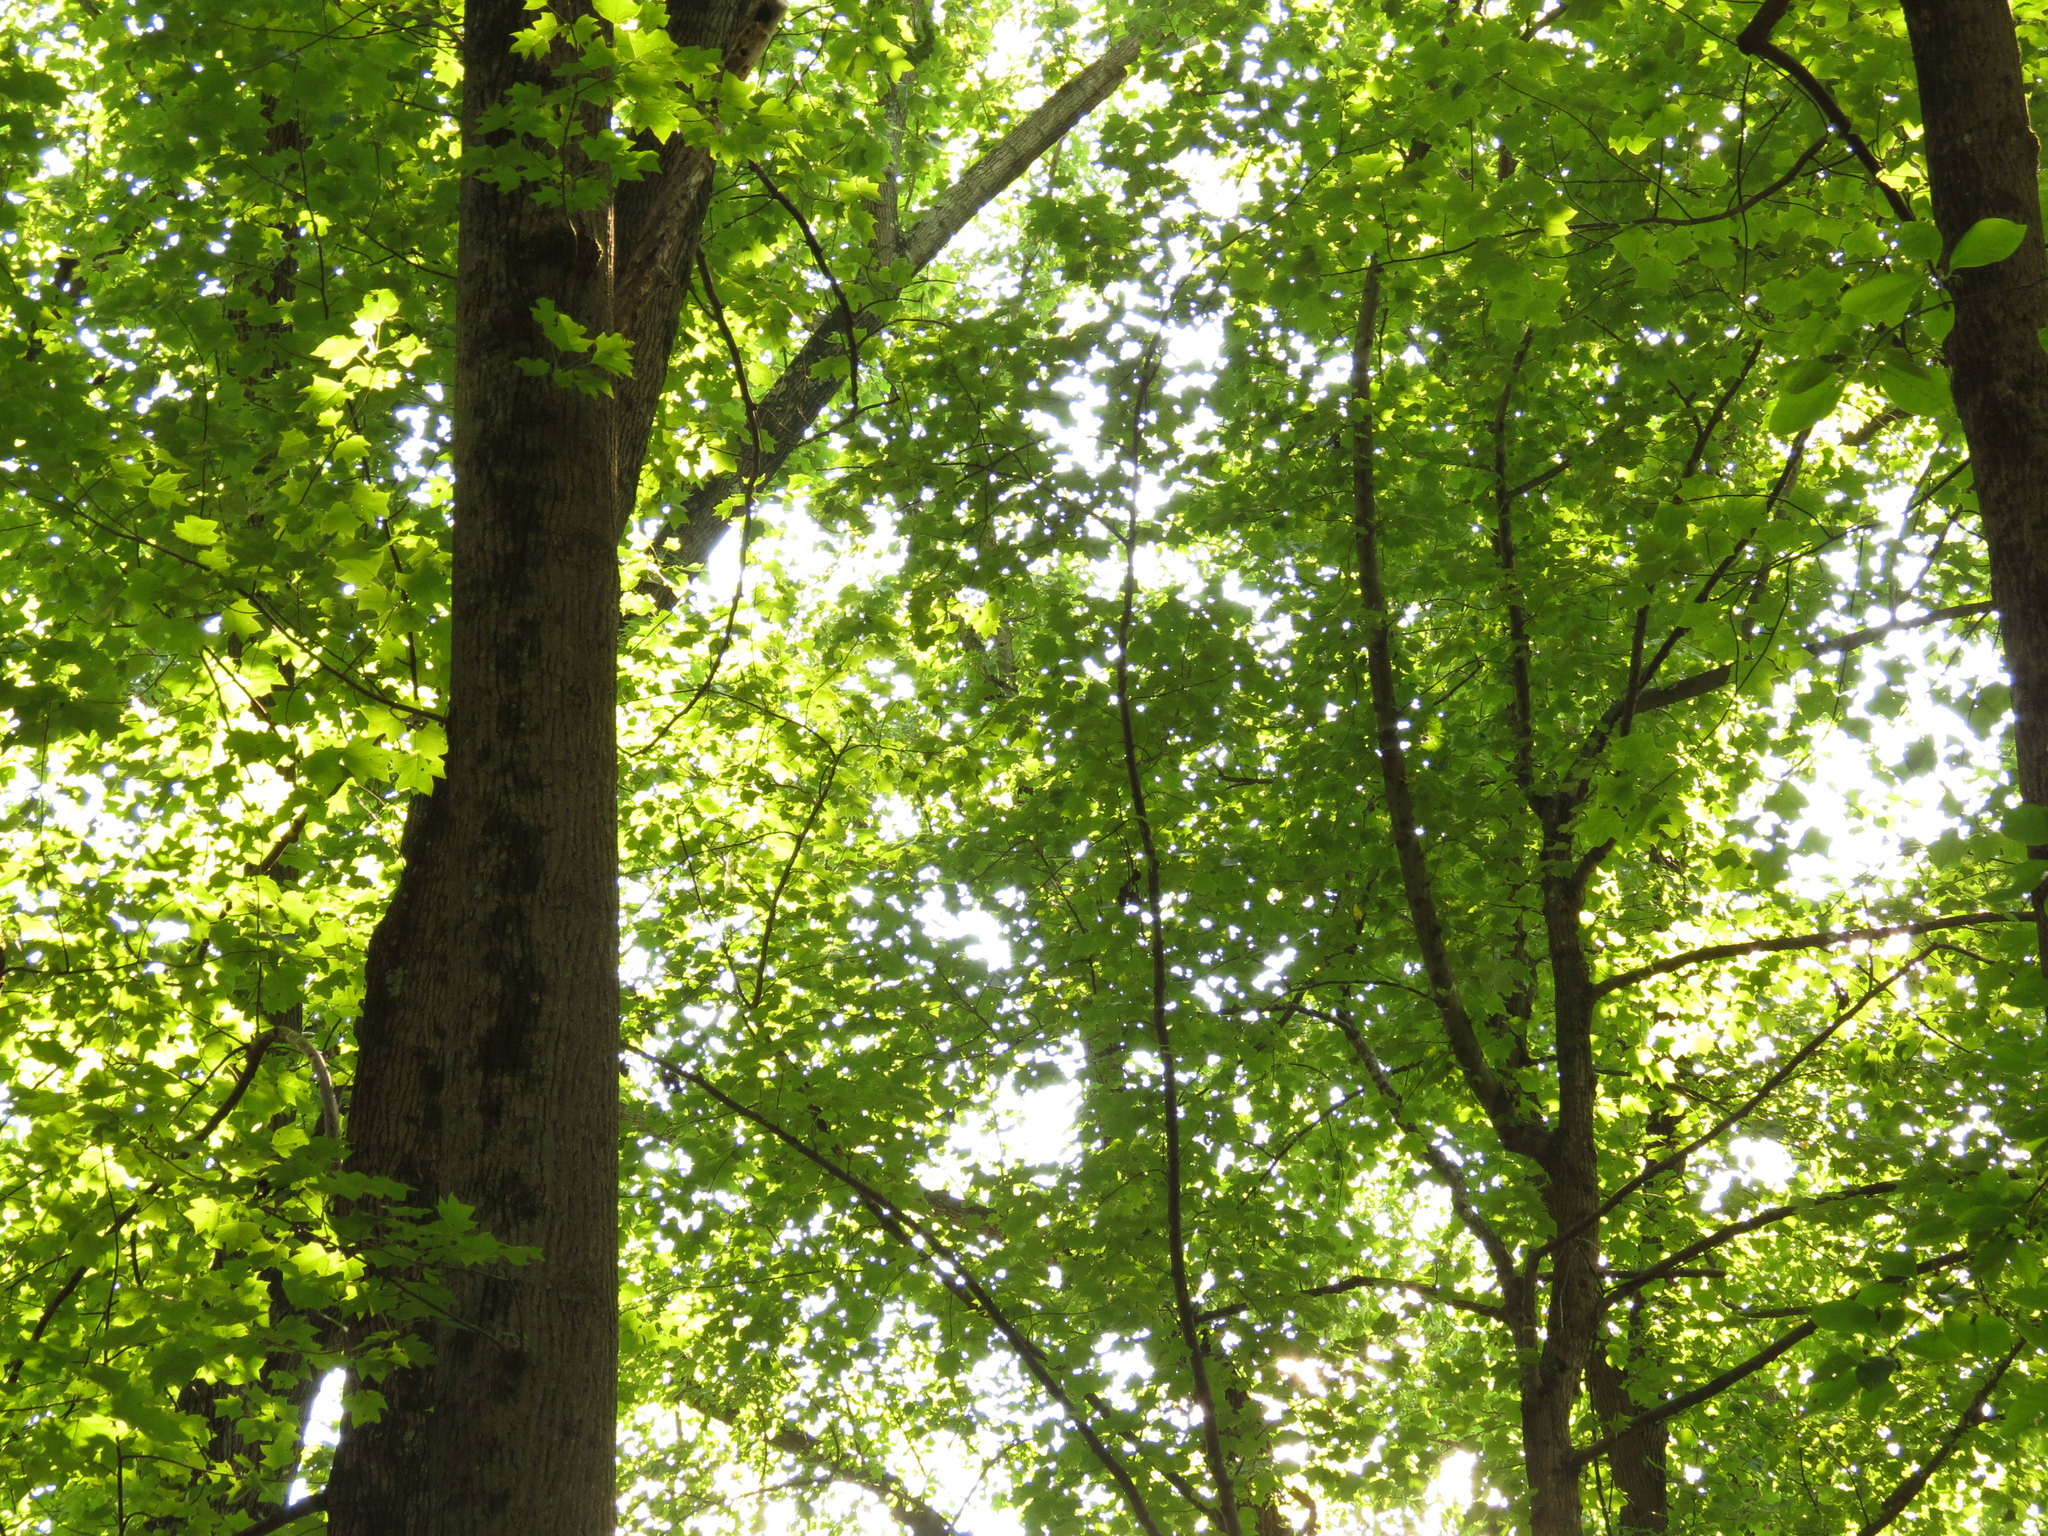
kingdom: Plantae
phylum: Tracheophyta
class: Magnoliopsida
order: Magnoliales
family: Magnoliaceae
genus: Liriodendron
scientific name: Liriodendron tulipifera
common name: Tulip tree
